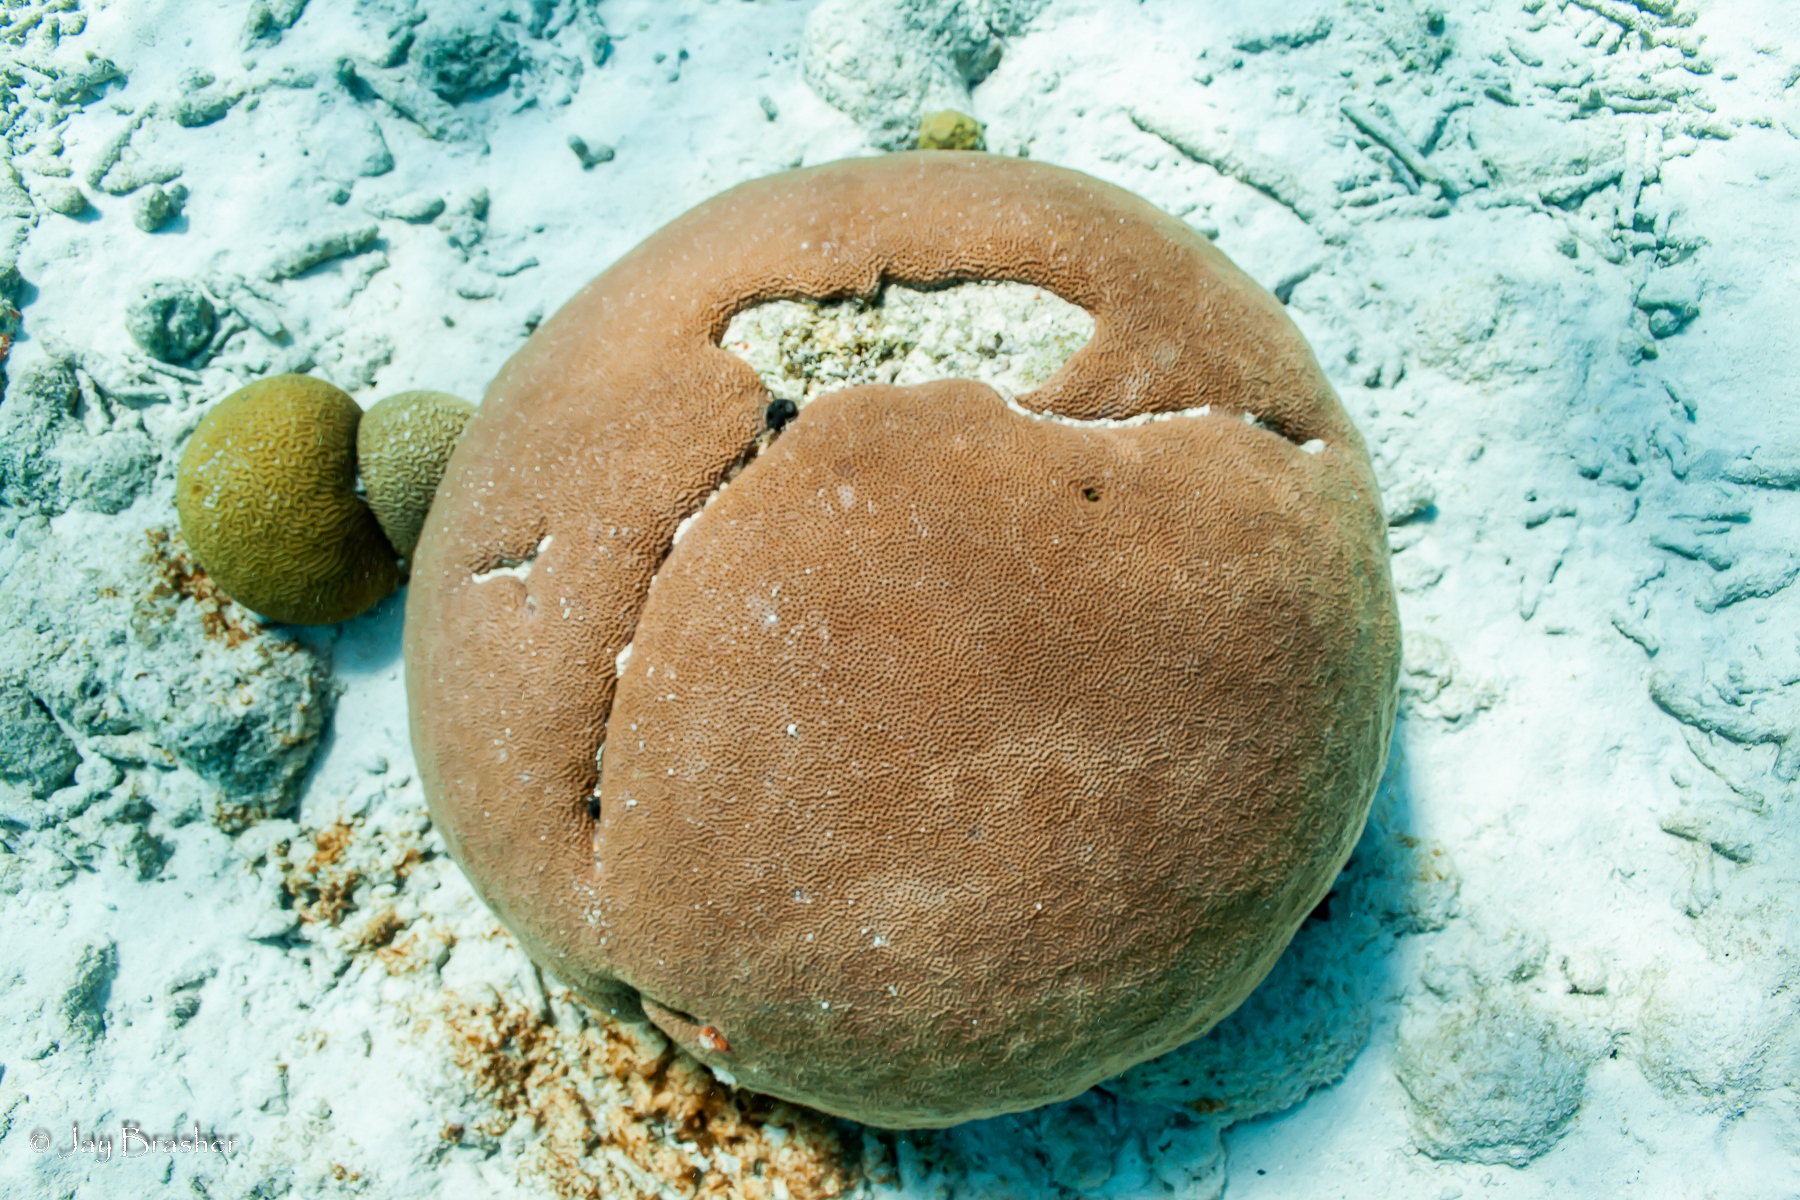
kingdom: Animalia
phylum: Cnidaria
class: Anthozoa
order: Scleractinia
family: Rhizangiidae
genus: Siderastrea
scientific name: Siderastrea siderea
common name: Massive starlet coral
